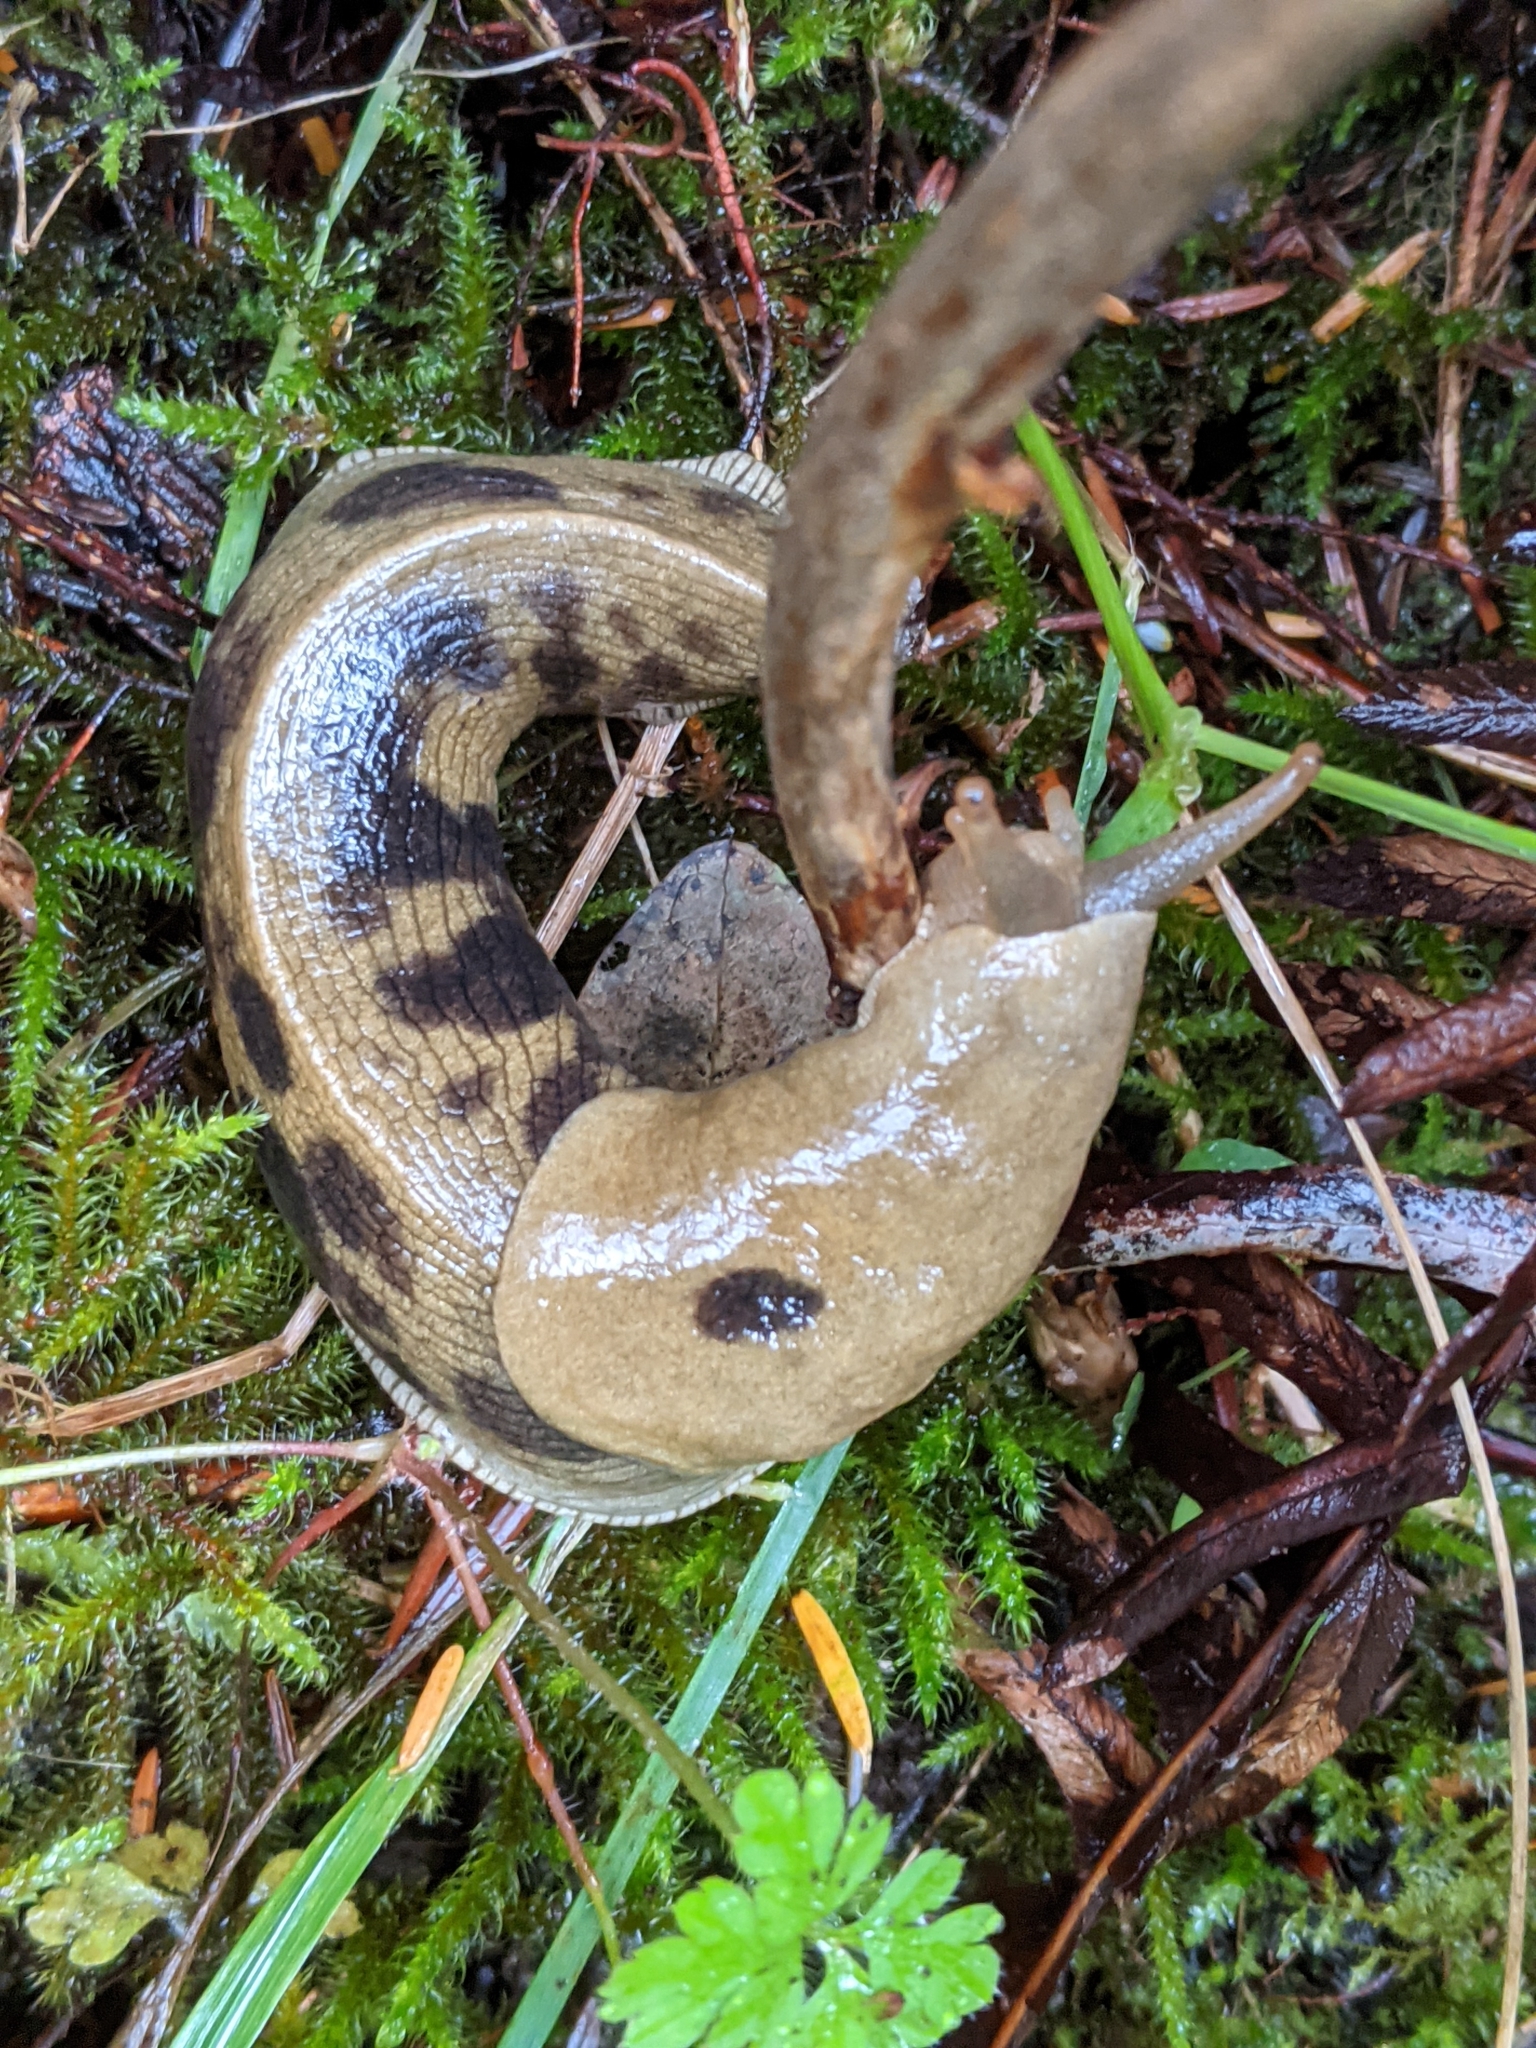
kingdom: Animalia
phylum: Mollusca
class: Gastropoda
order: Stylommatophora
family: Ariolimacidae
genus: Ariolimax
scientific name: Ariolimax columbianus
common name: Pacific banana slug
